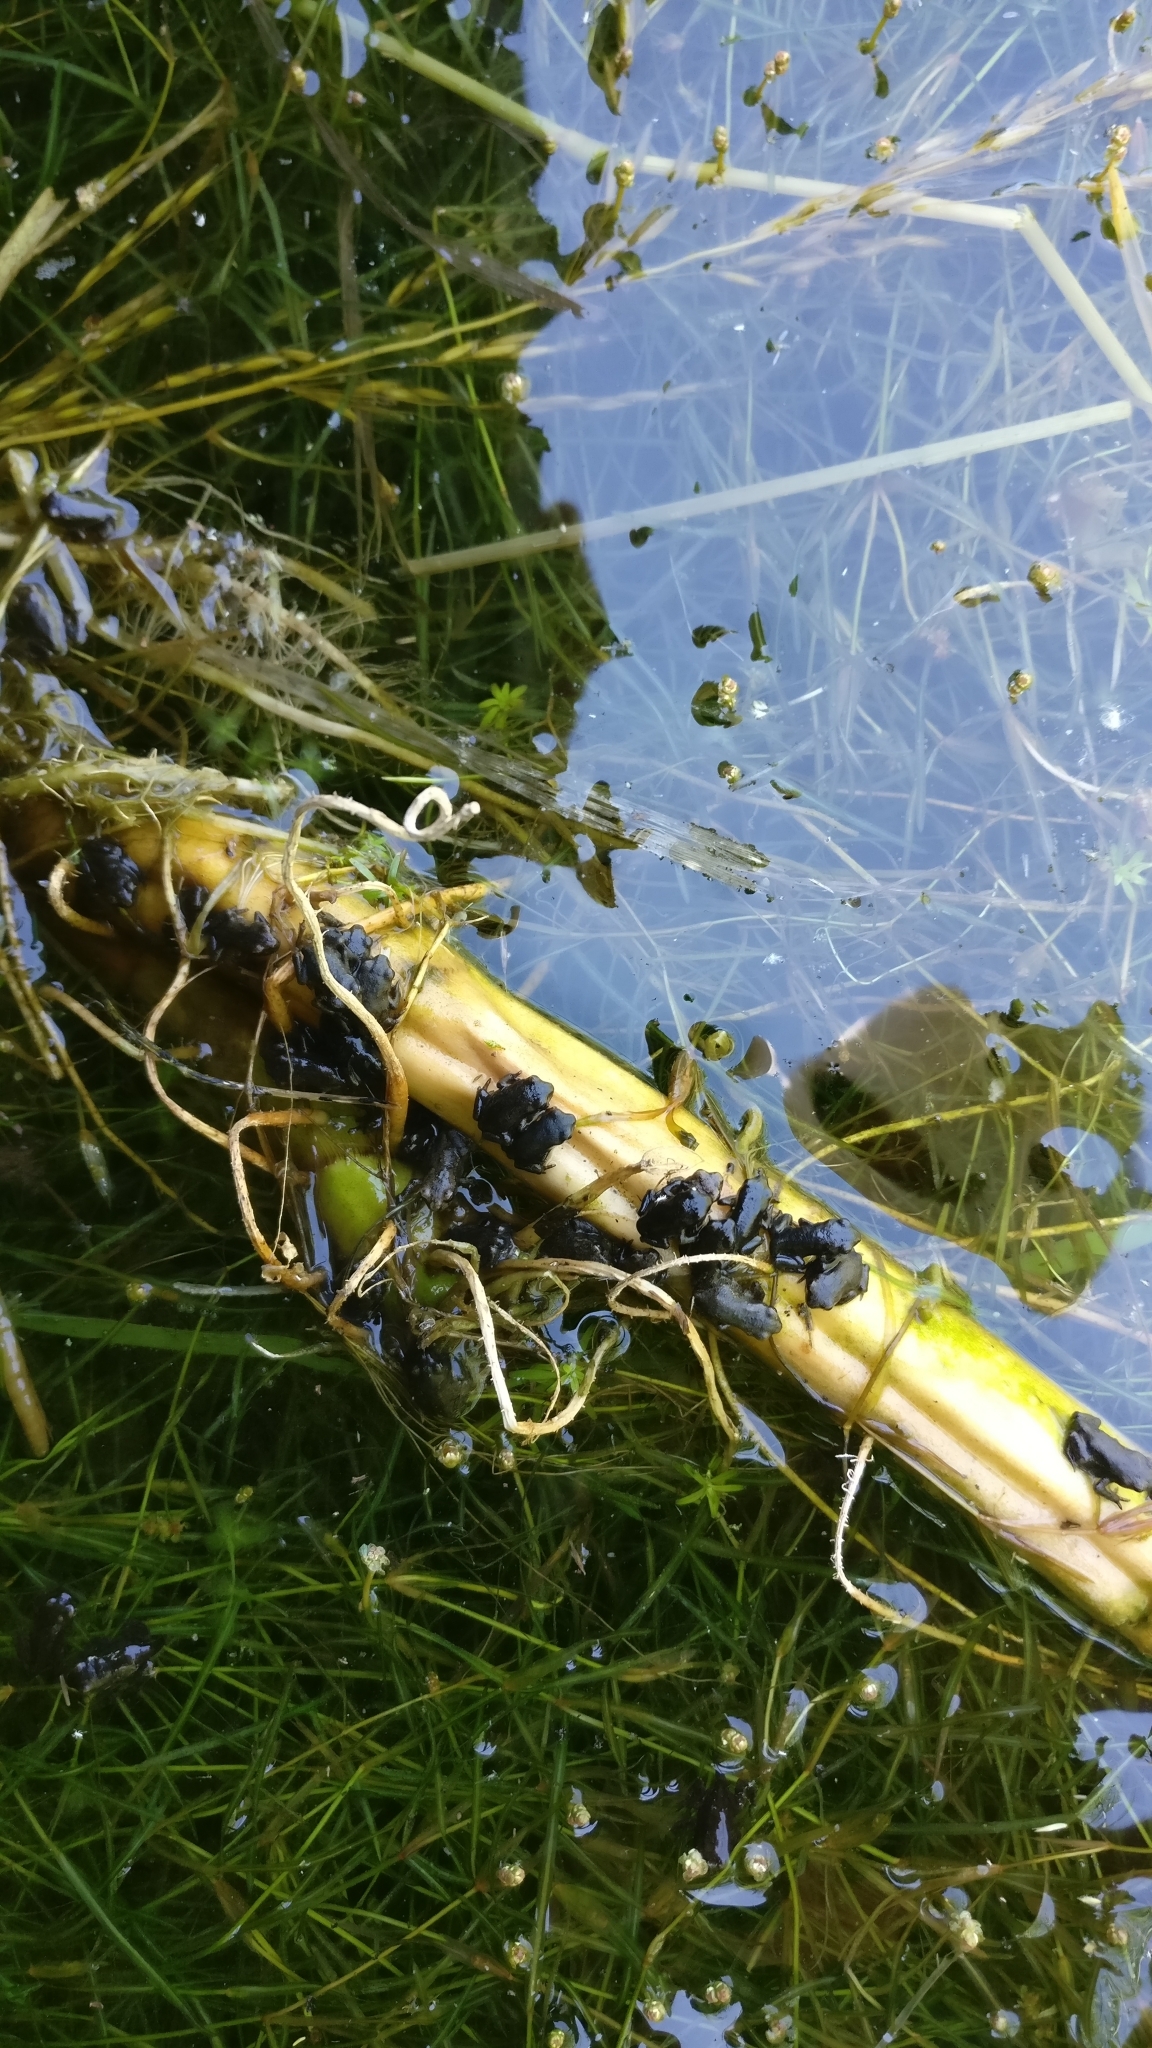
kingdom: Animalia
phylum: Chordata
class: Amphibia
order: Anura
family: Bufonidae
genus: Bufo
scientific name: Bufo bufo
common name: Common toad
